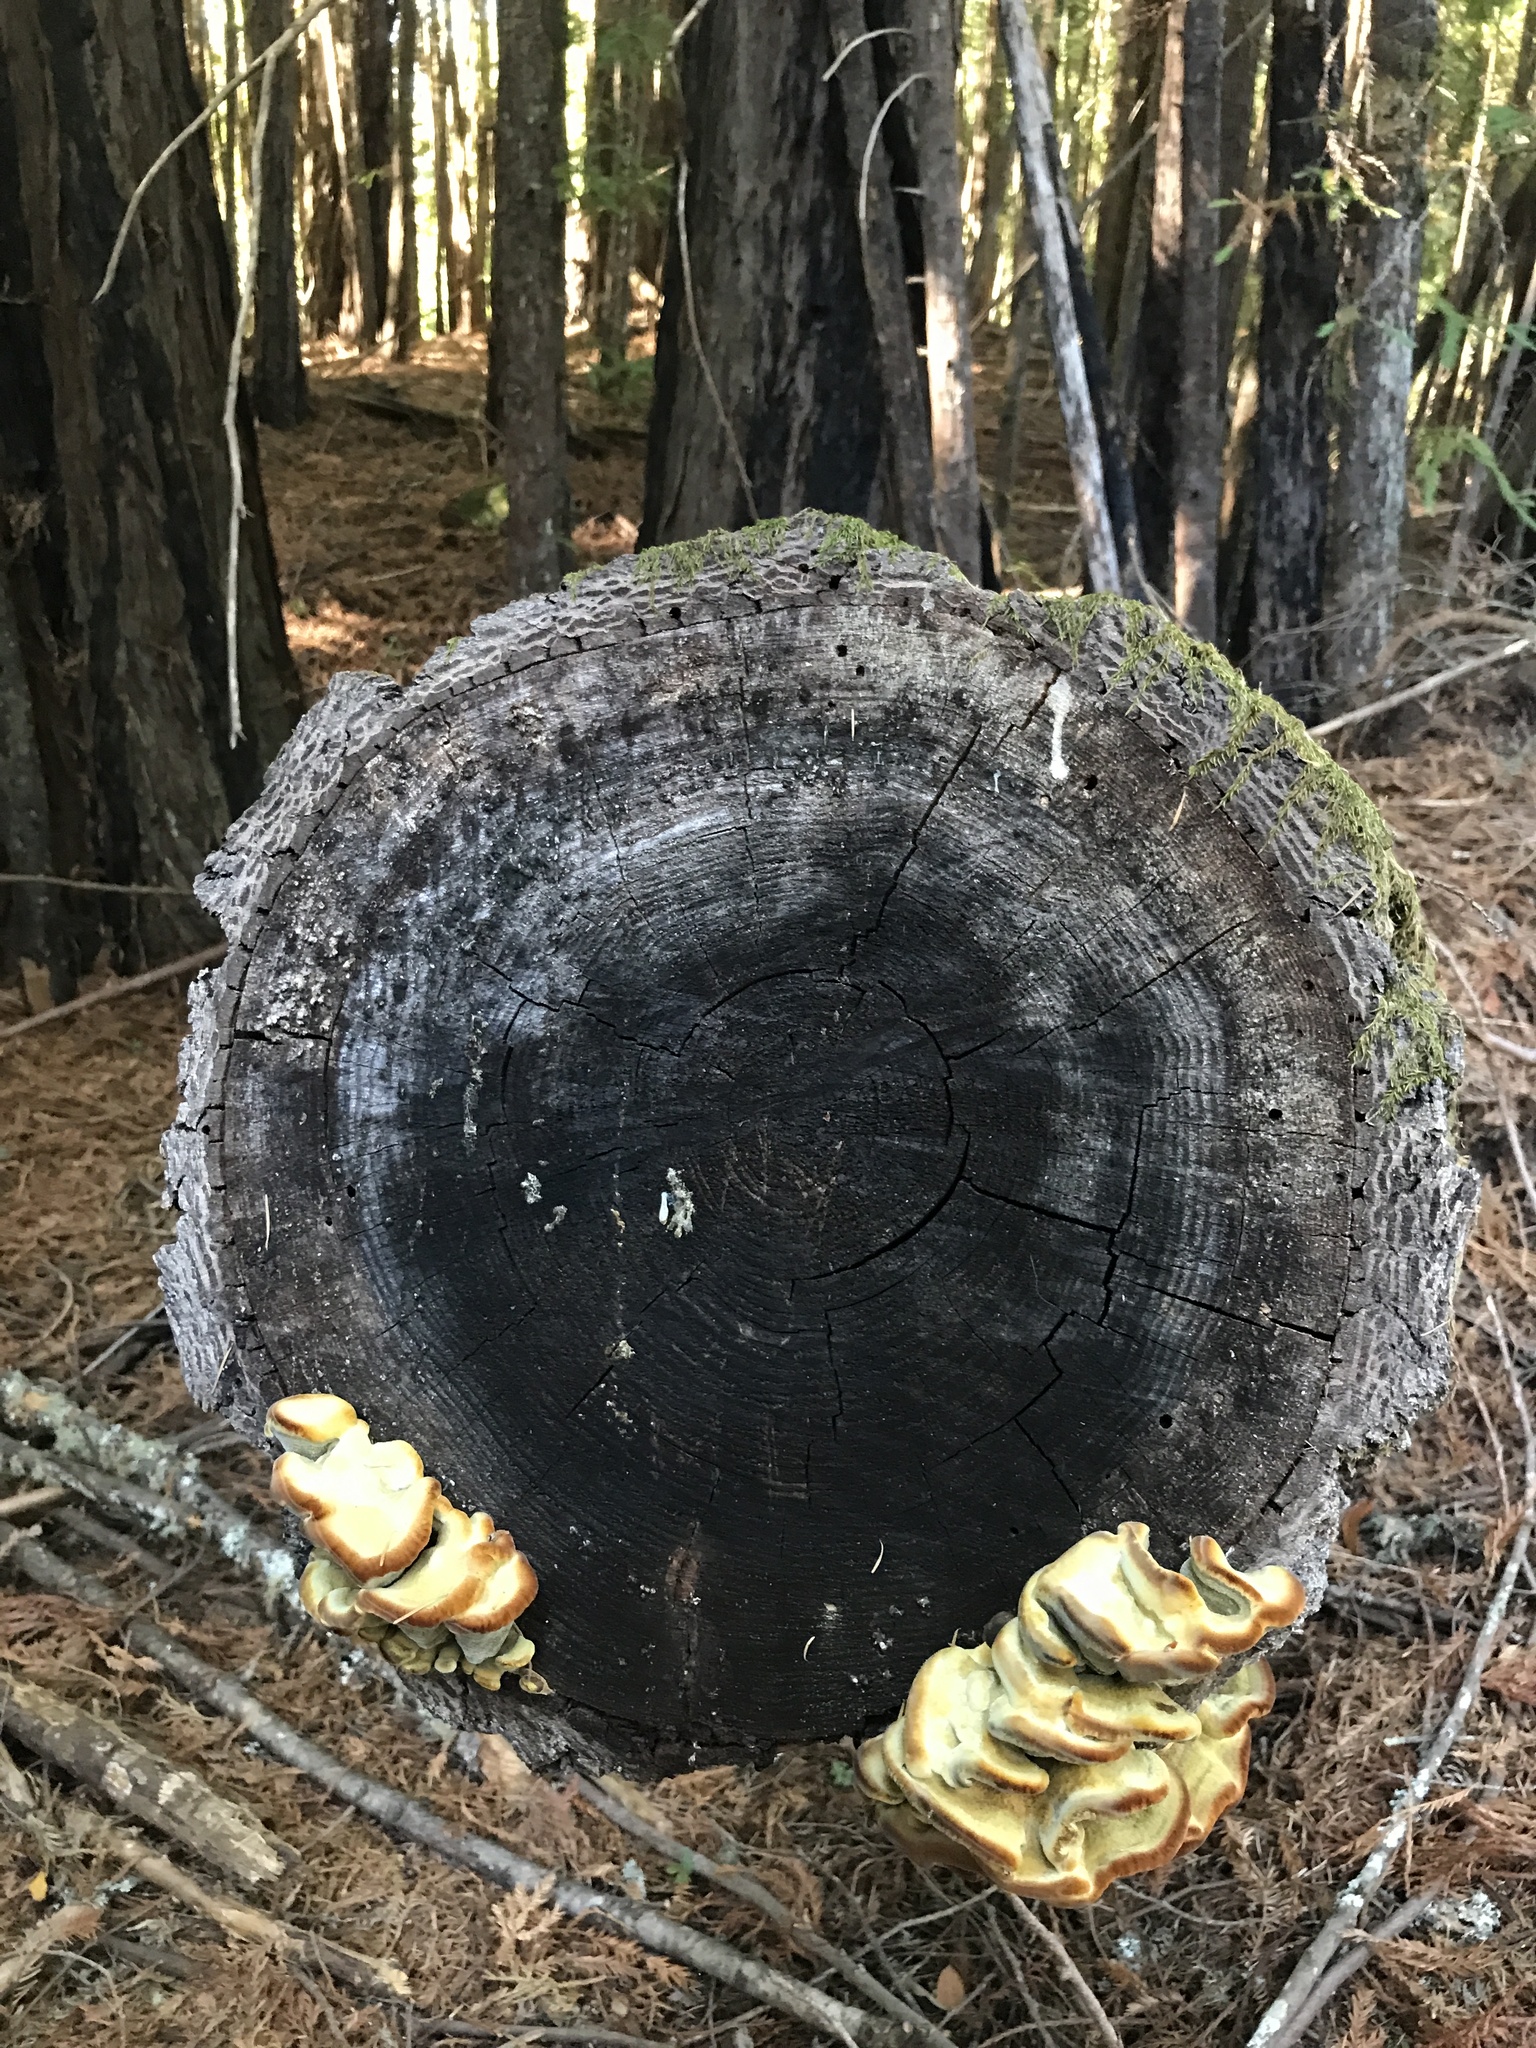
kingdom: Fungi
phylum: Basidiomycota
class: Agaricomycetes
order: Polyporales
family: Laetiporaceae
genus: Phaeolus
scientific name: Phaeolus schweinitzii
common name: Dyer's mazegill
